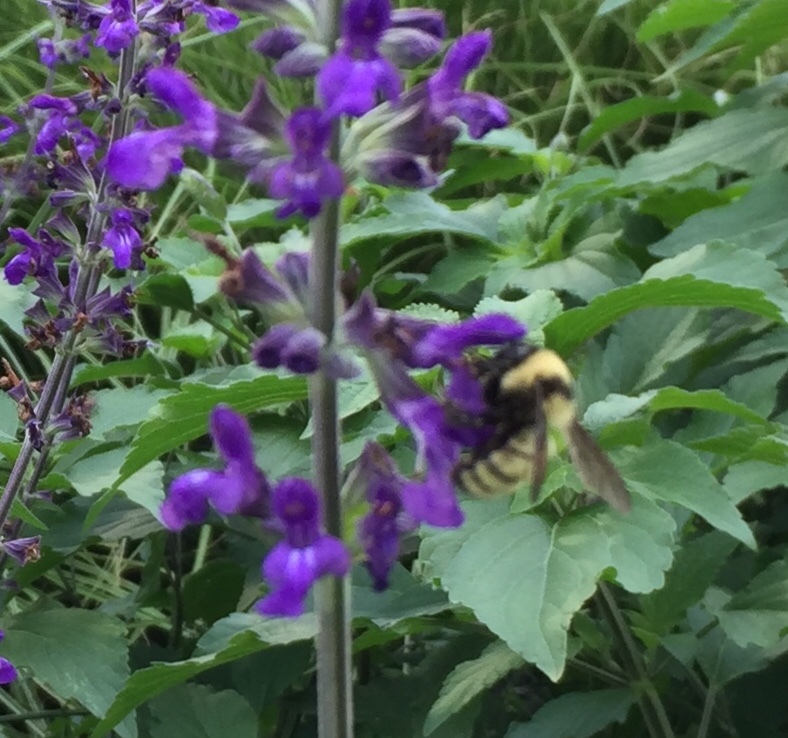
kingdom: Animalia
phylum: Arthropoda
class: Insecta
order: Hymenoptera
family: Apidae
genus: Bombus
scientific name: Bombus fervidus
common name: Yellow bumble bee
